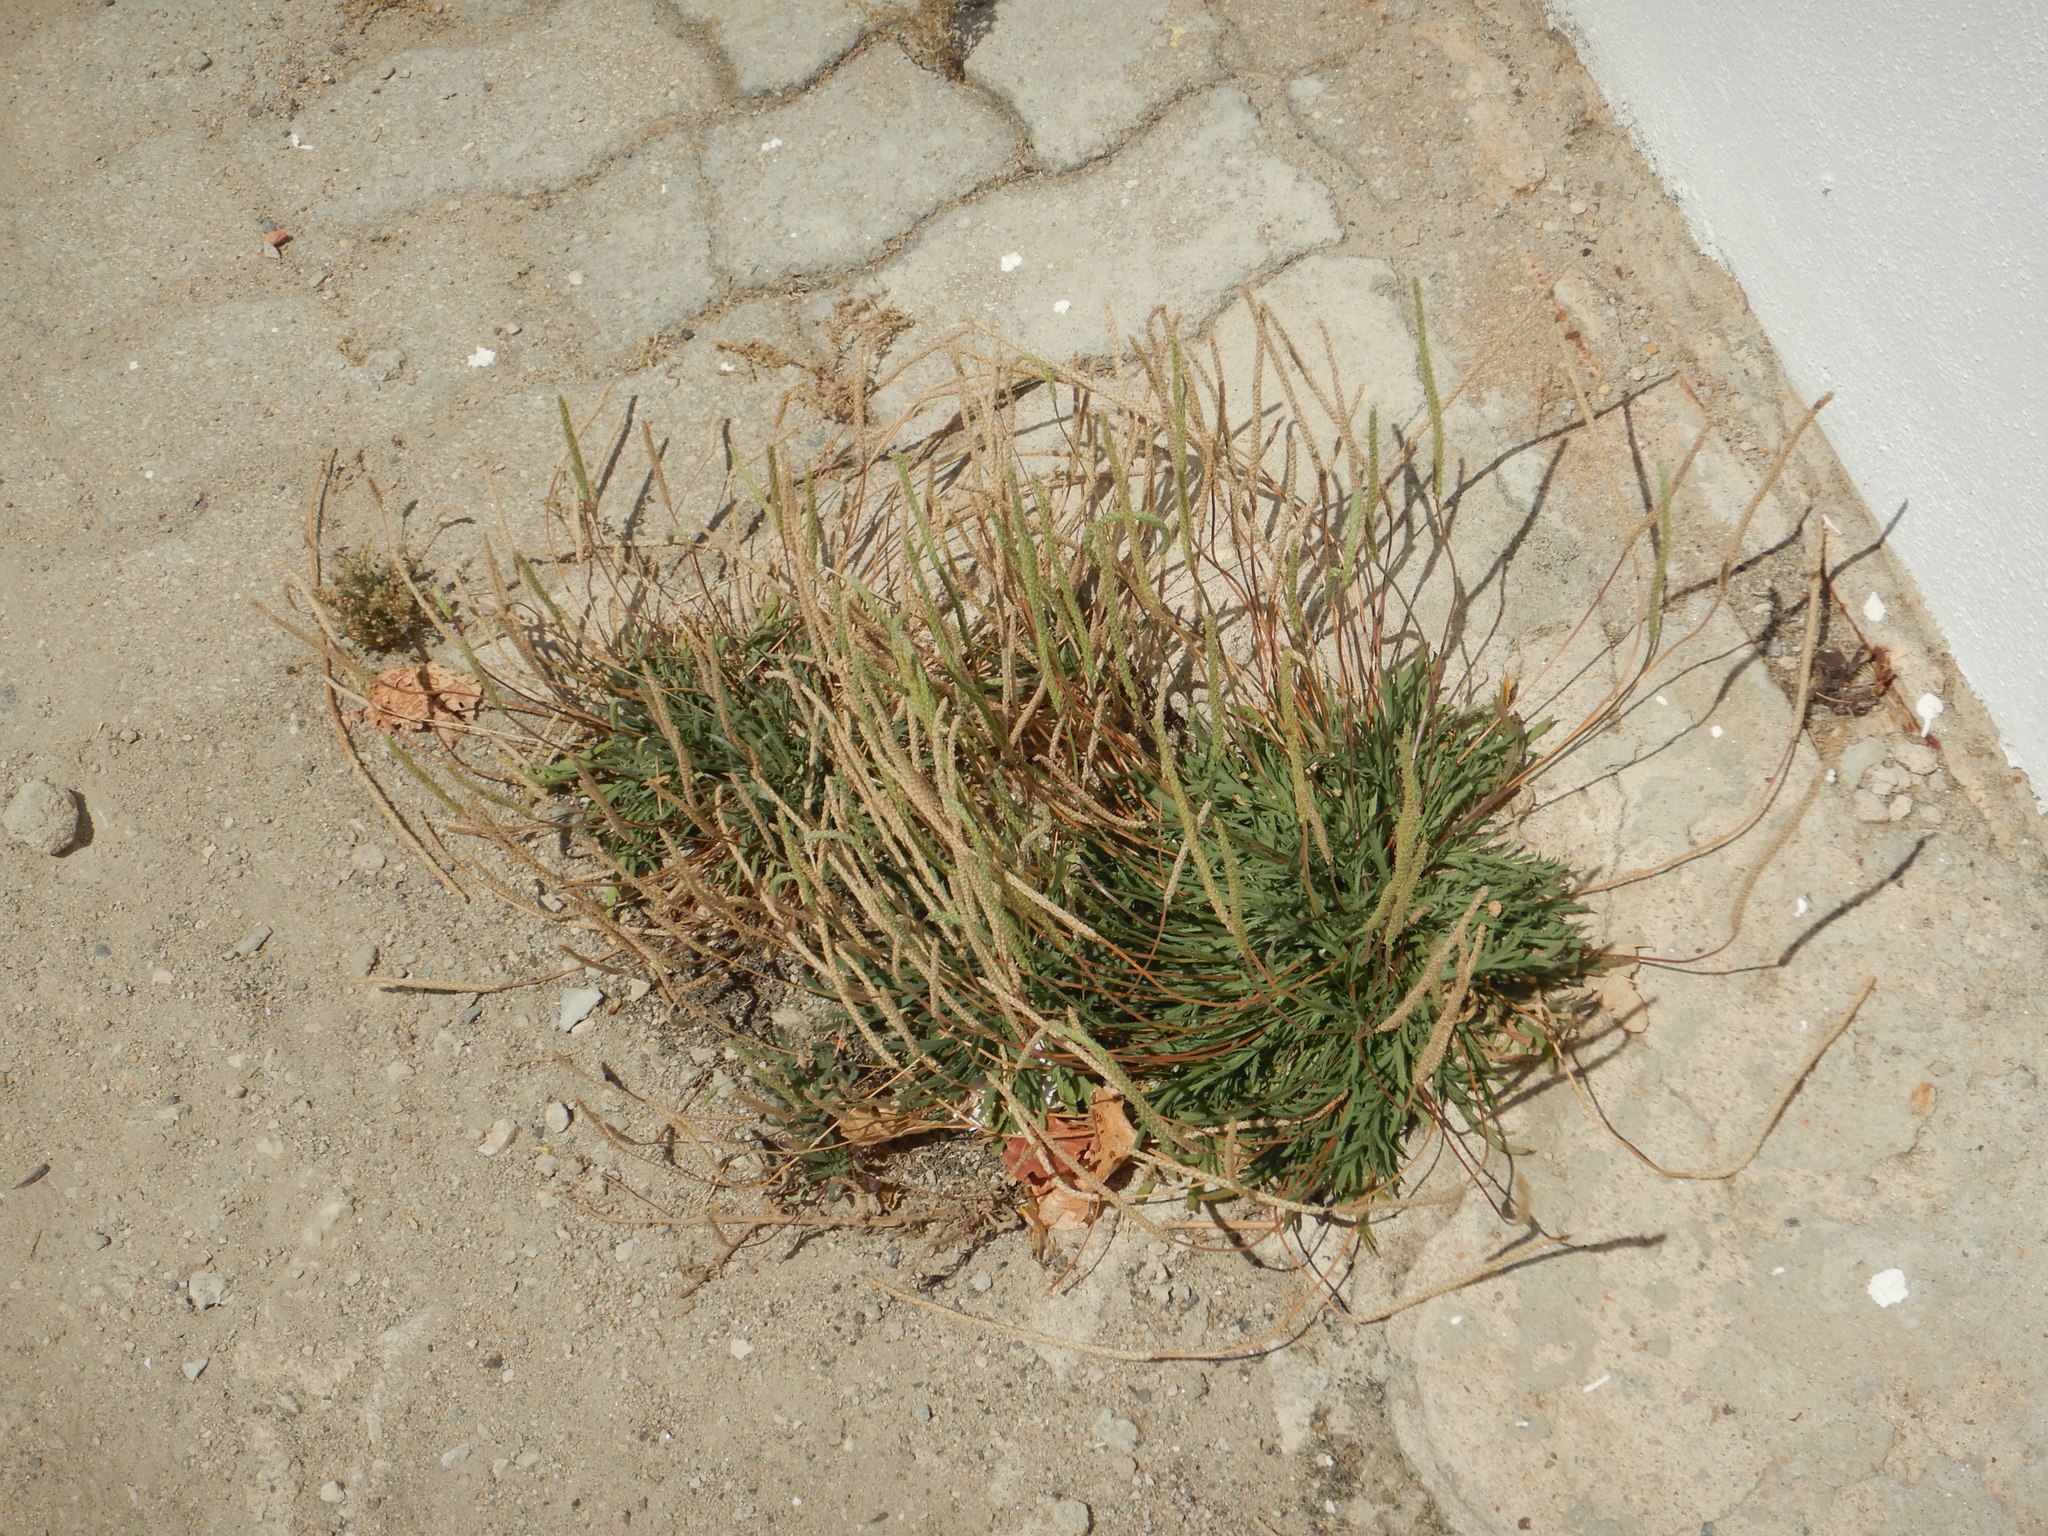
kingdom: Plantae
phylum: Tracheophyta
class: Magnoliopsida
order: Lamiales
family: Plantaginaceae
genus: Plantago
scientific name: Plantago coronopus
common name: Buck's-horn plantain
